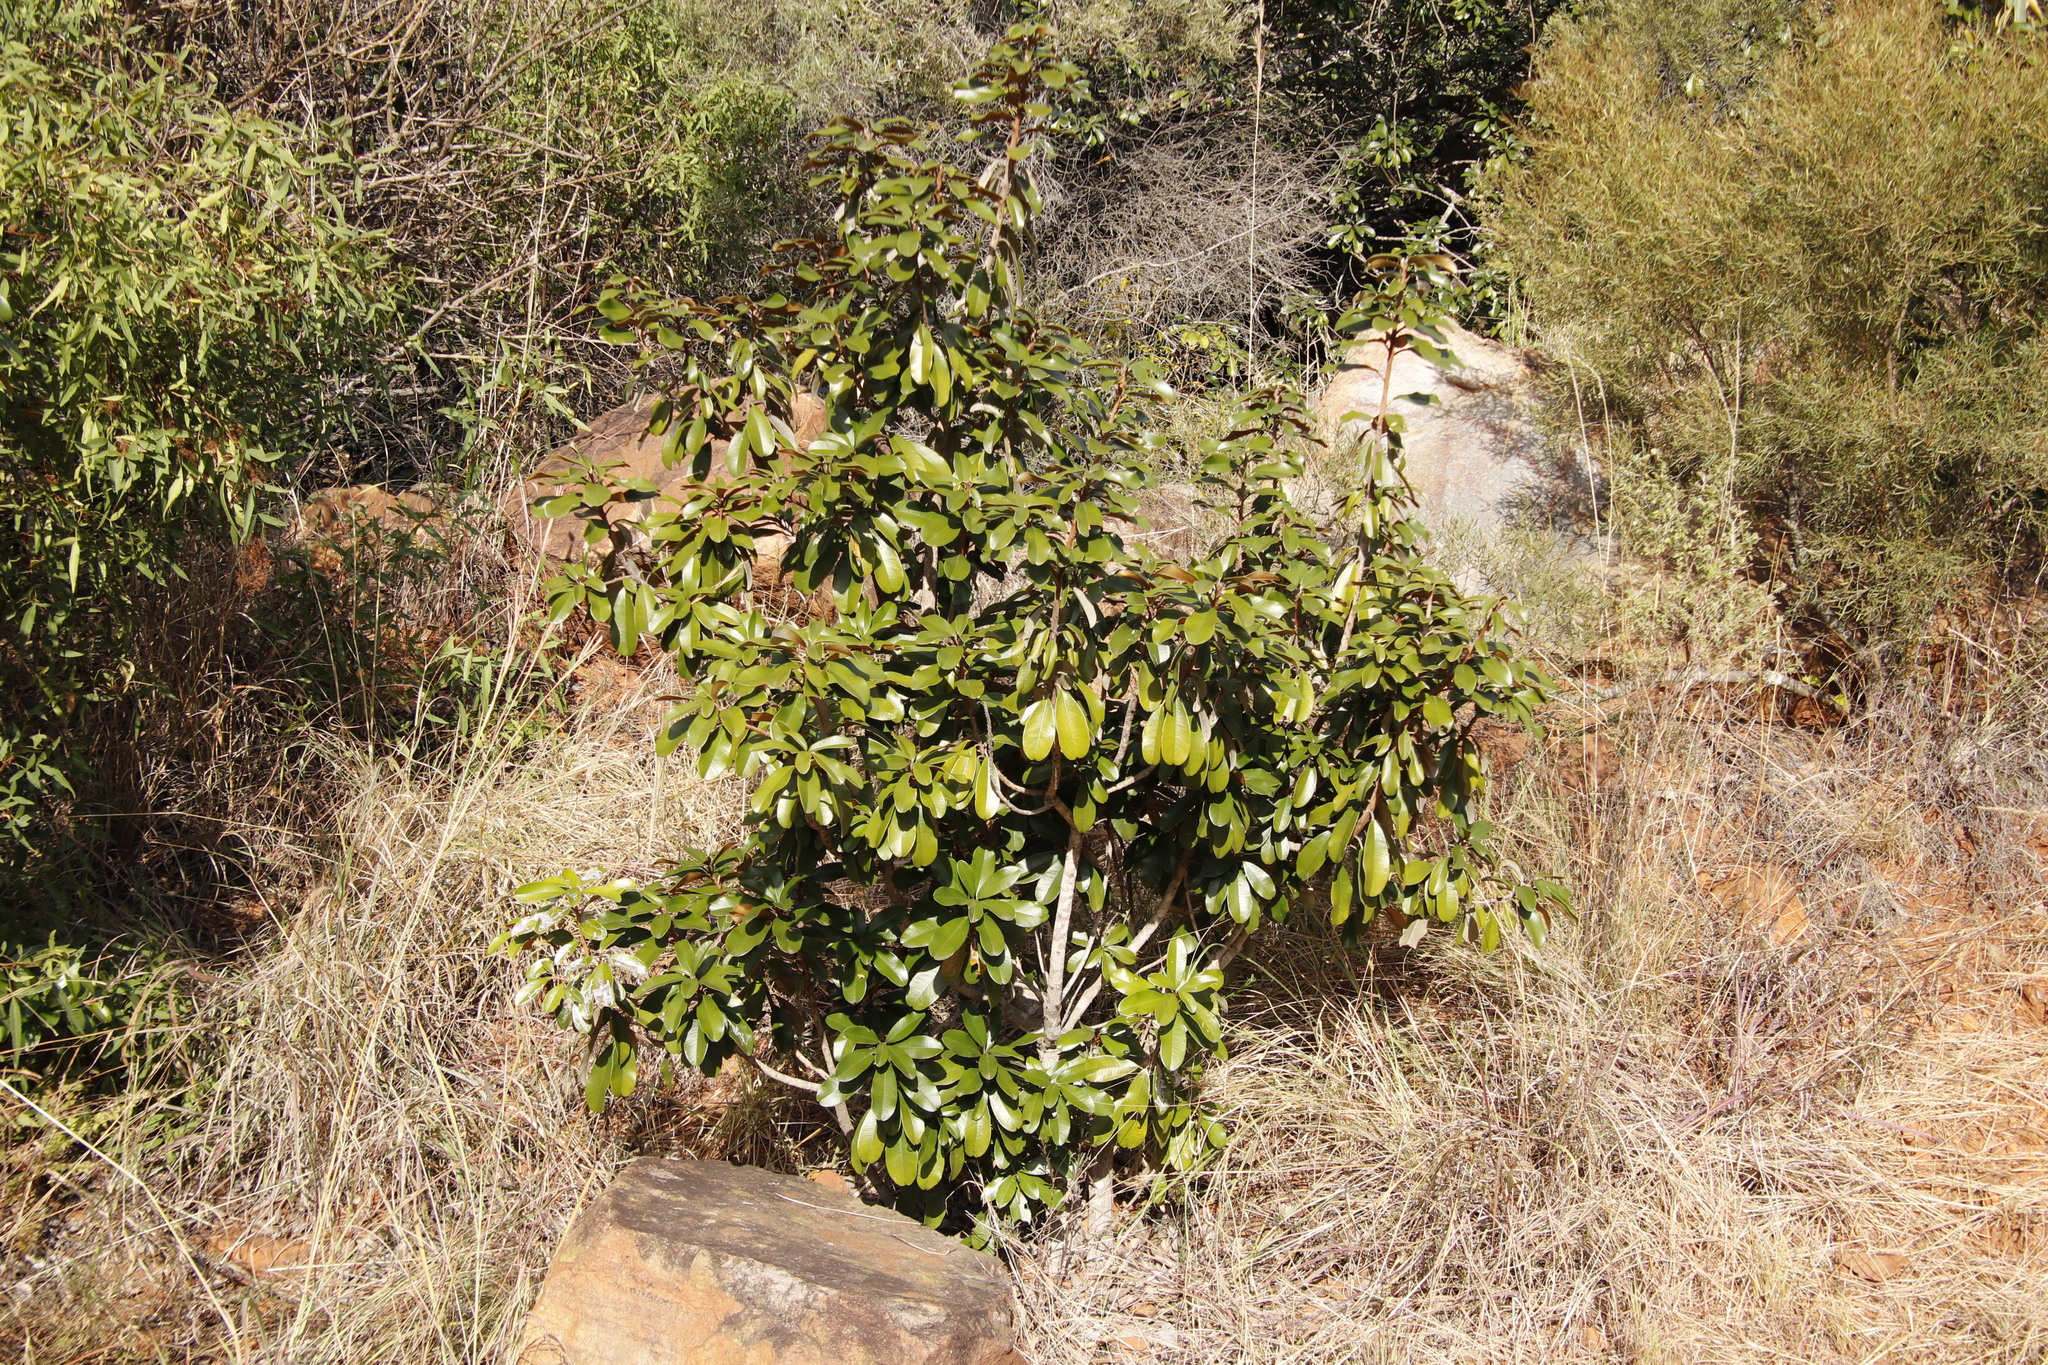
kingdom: Plantae
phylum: Tracheophyta
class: Magnoliopsida
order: Ericales
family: Sapotaceae
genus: Englerophytum
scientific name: Englerophytum magalismontanum
